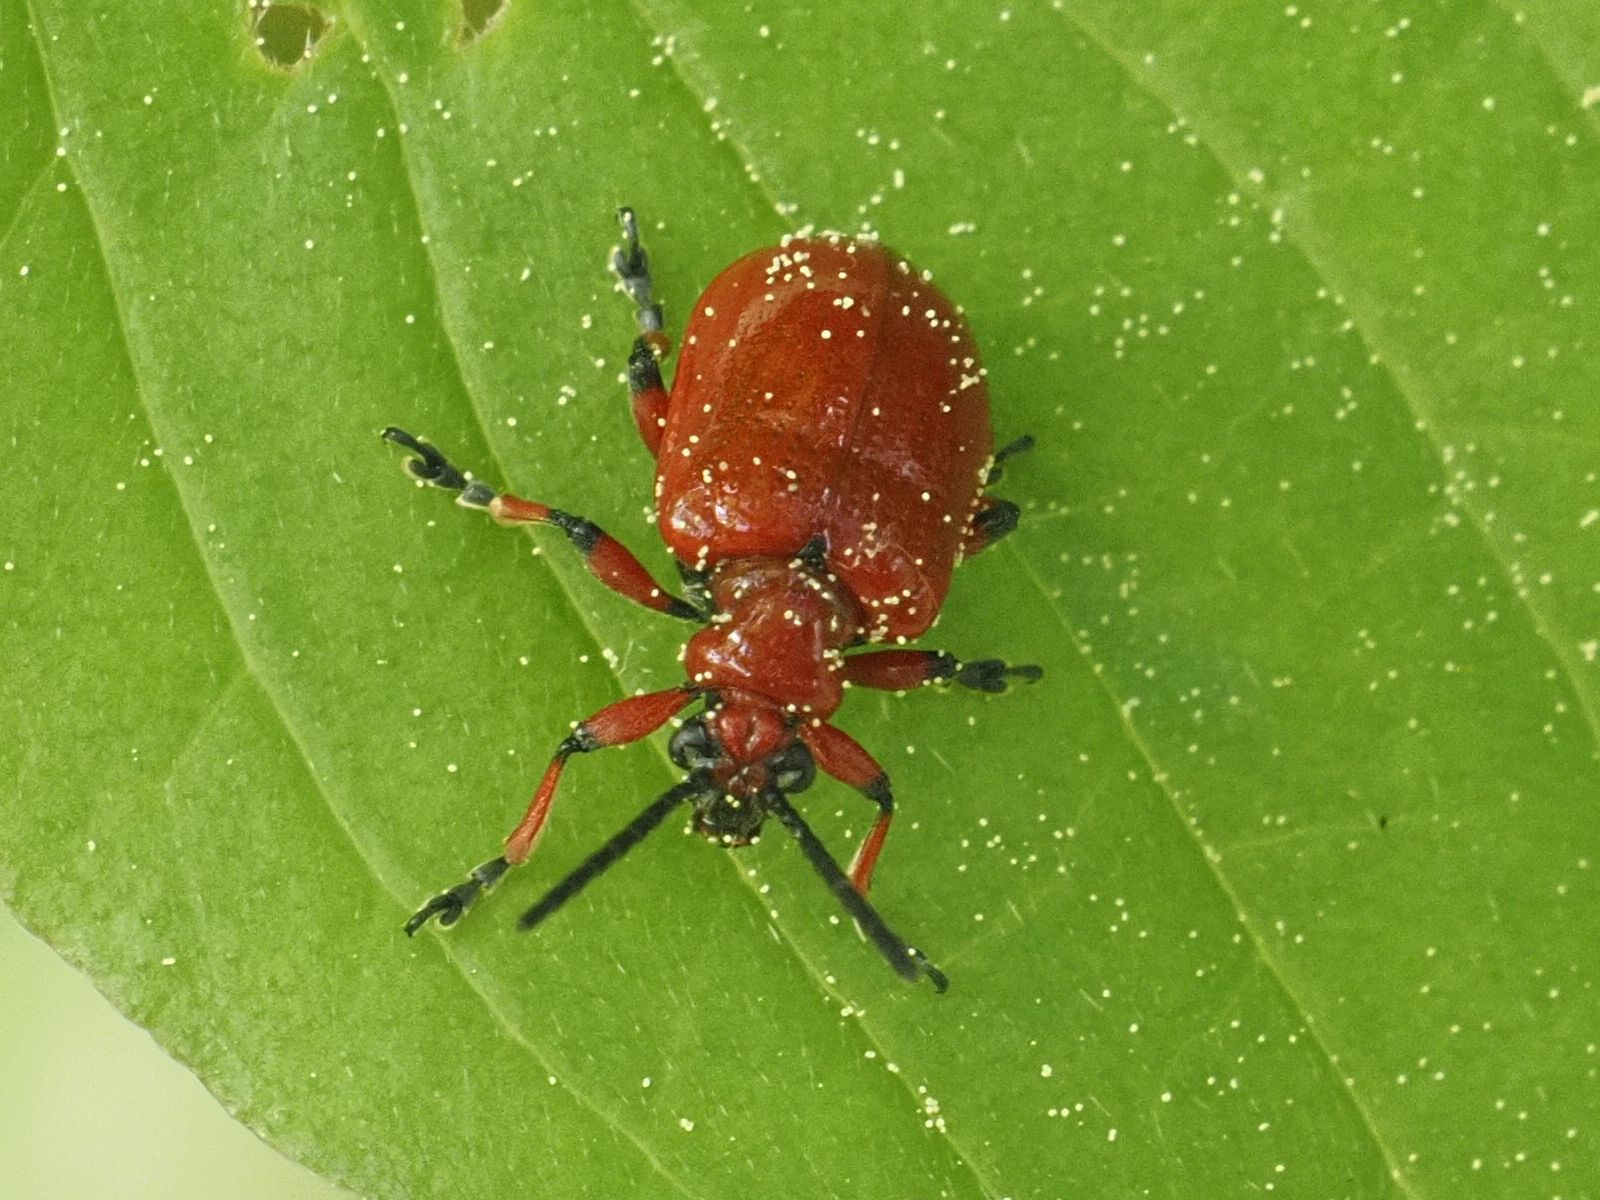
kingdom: Animalia
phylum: Arthropoda
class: Insecta
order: Coleoptera
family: Chrysomelidae
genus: Lilioceris
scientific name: Lilioceris merdigera
